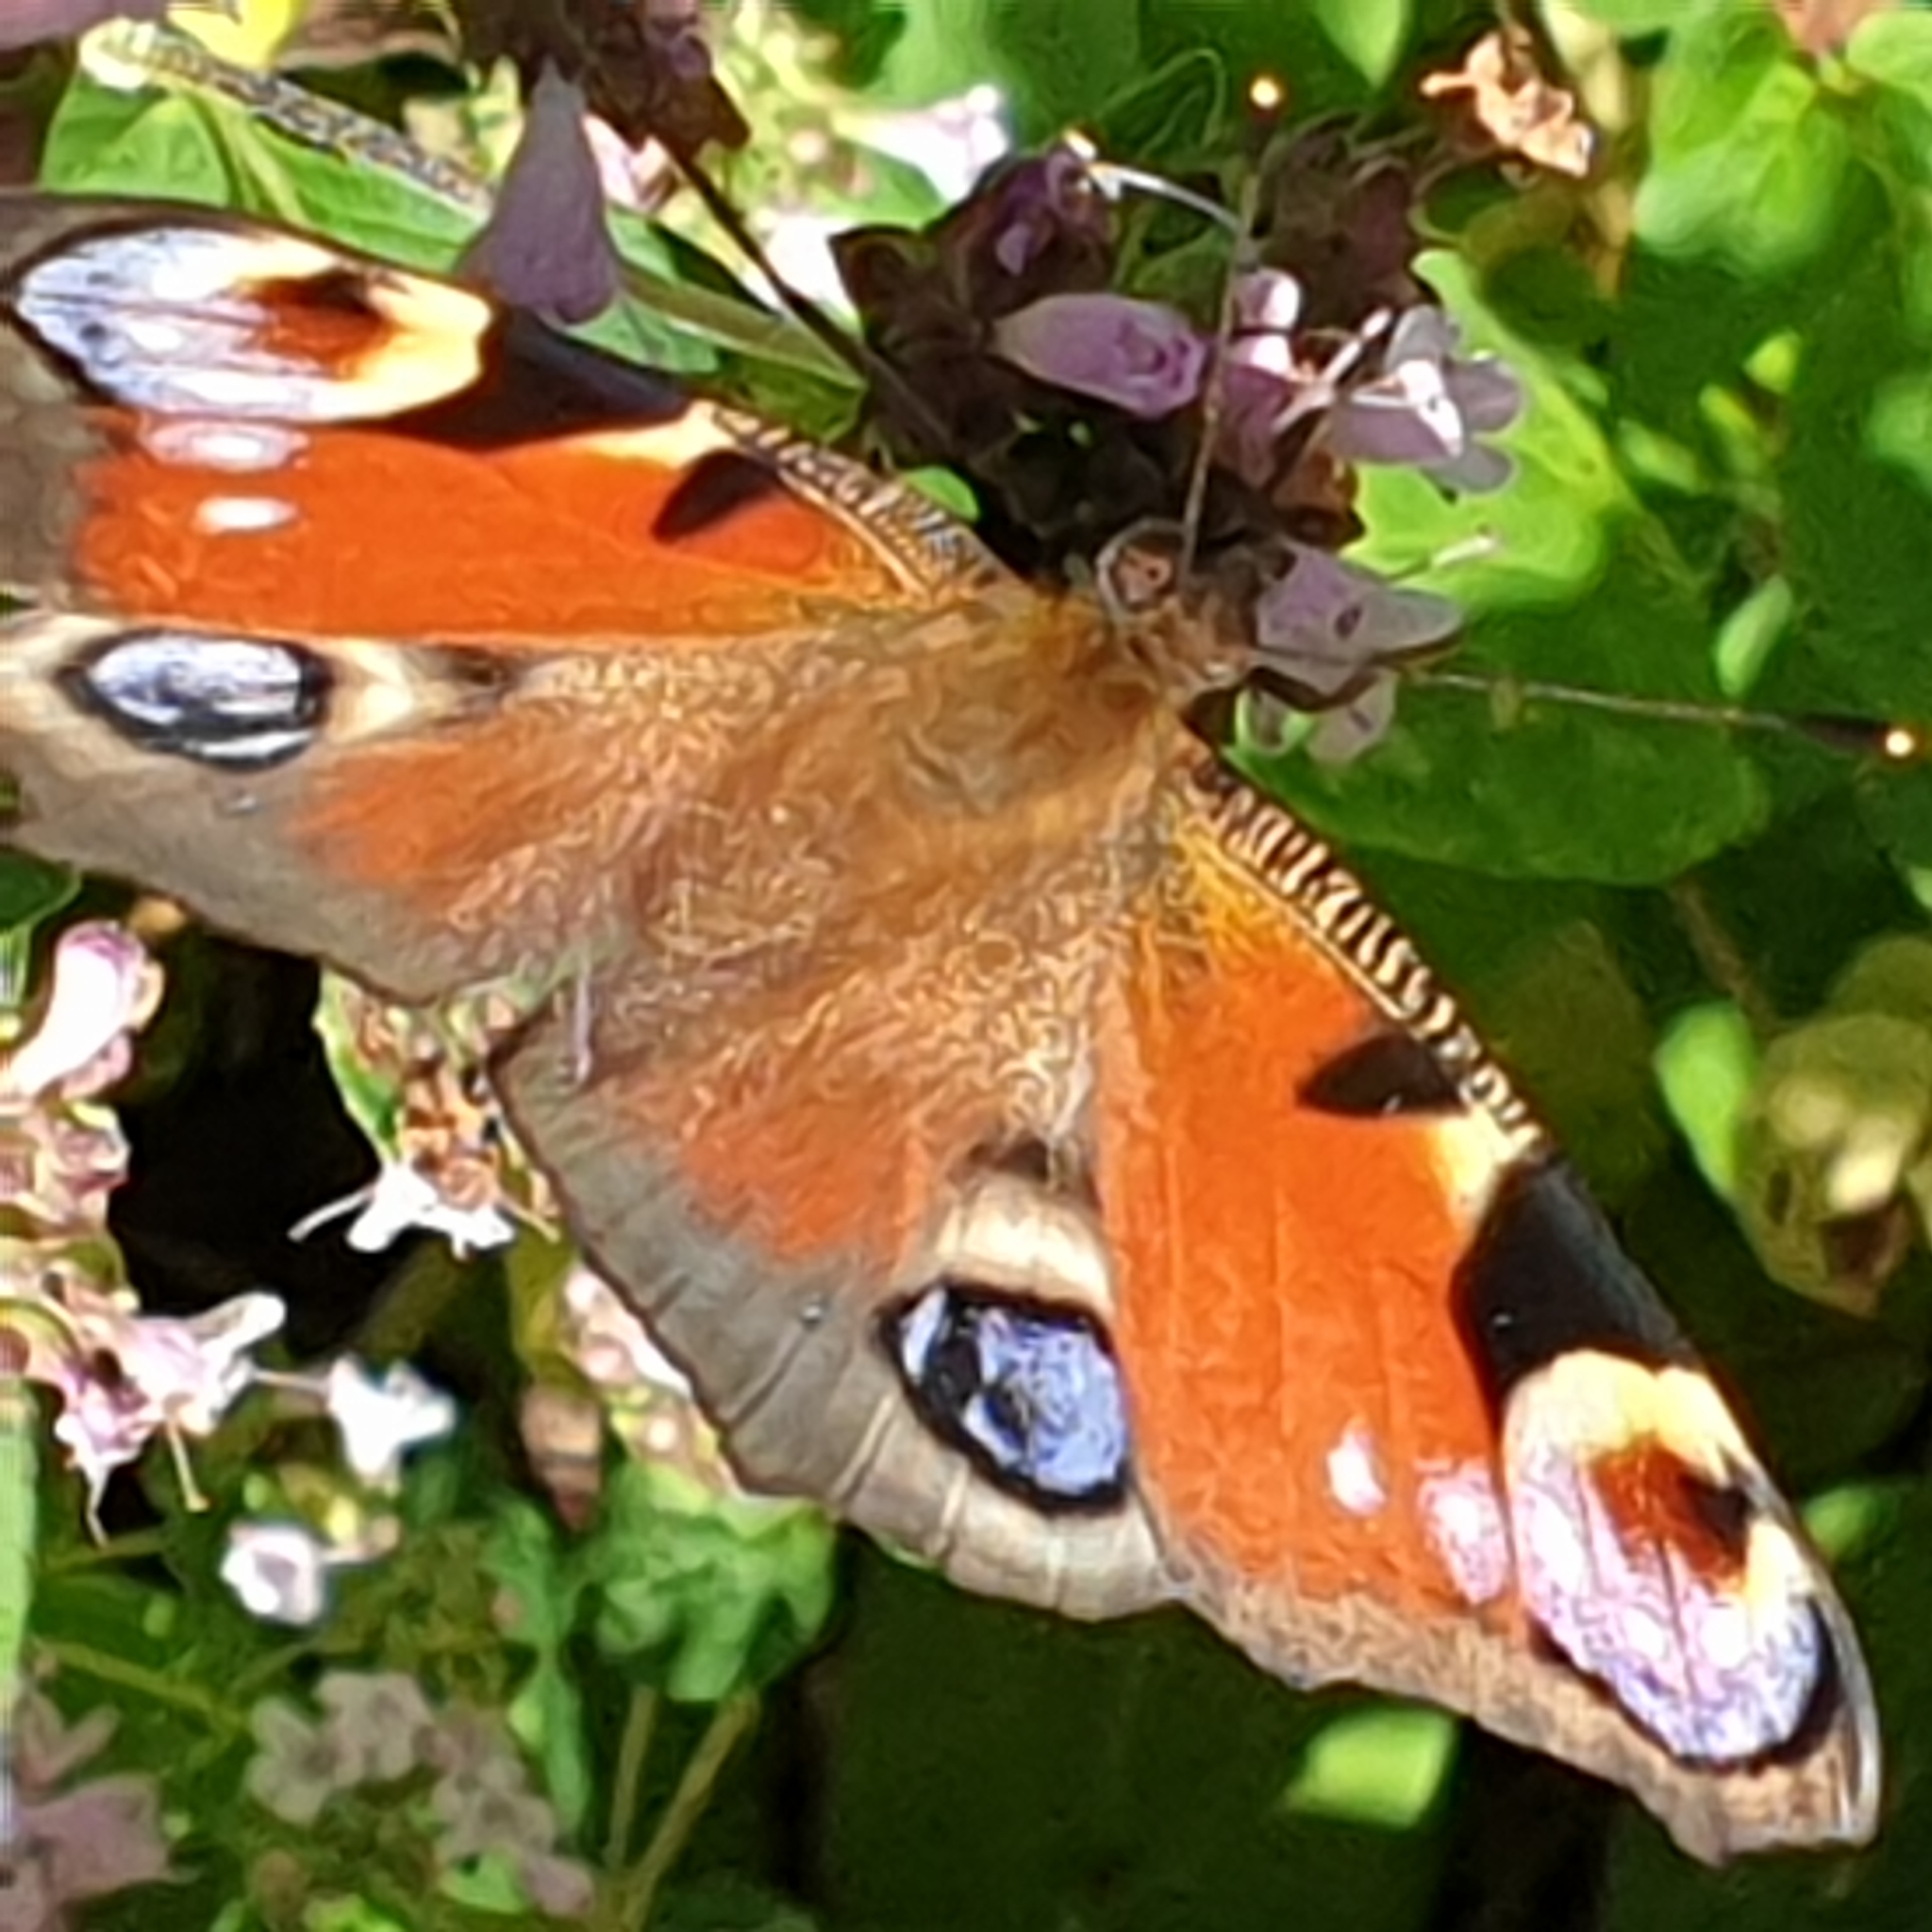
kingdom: Animalia
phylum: Arthropoda
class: Insecta
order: Lepidoptera
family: Nymphalidae
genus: Aglais
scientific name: Aglais io
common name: Peacock
